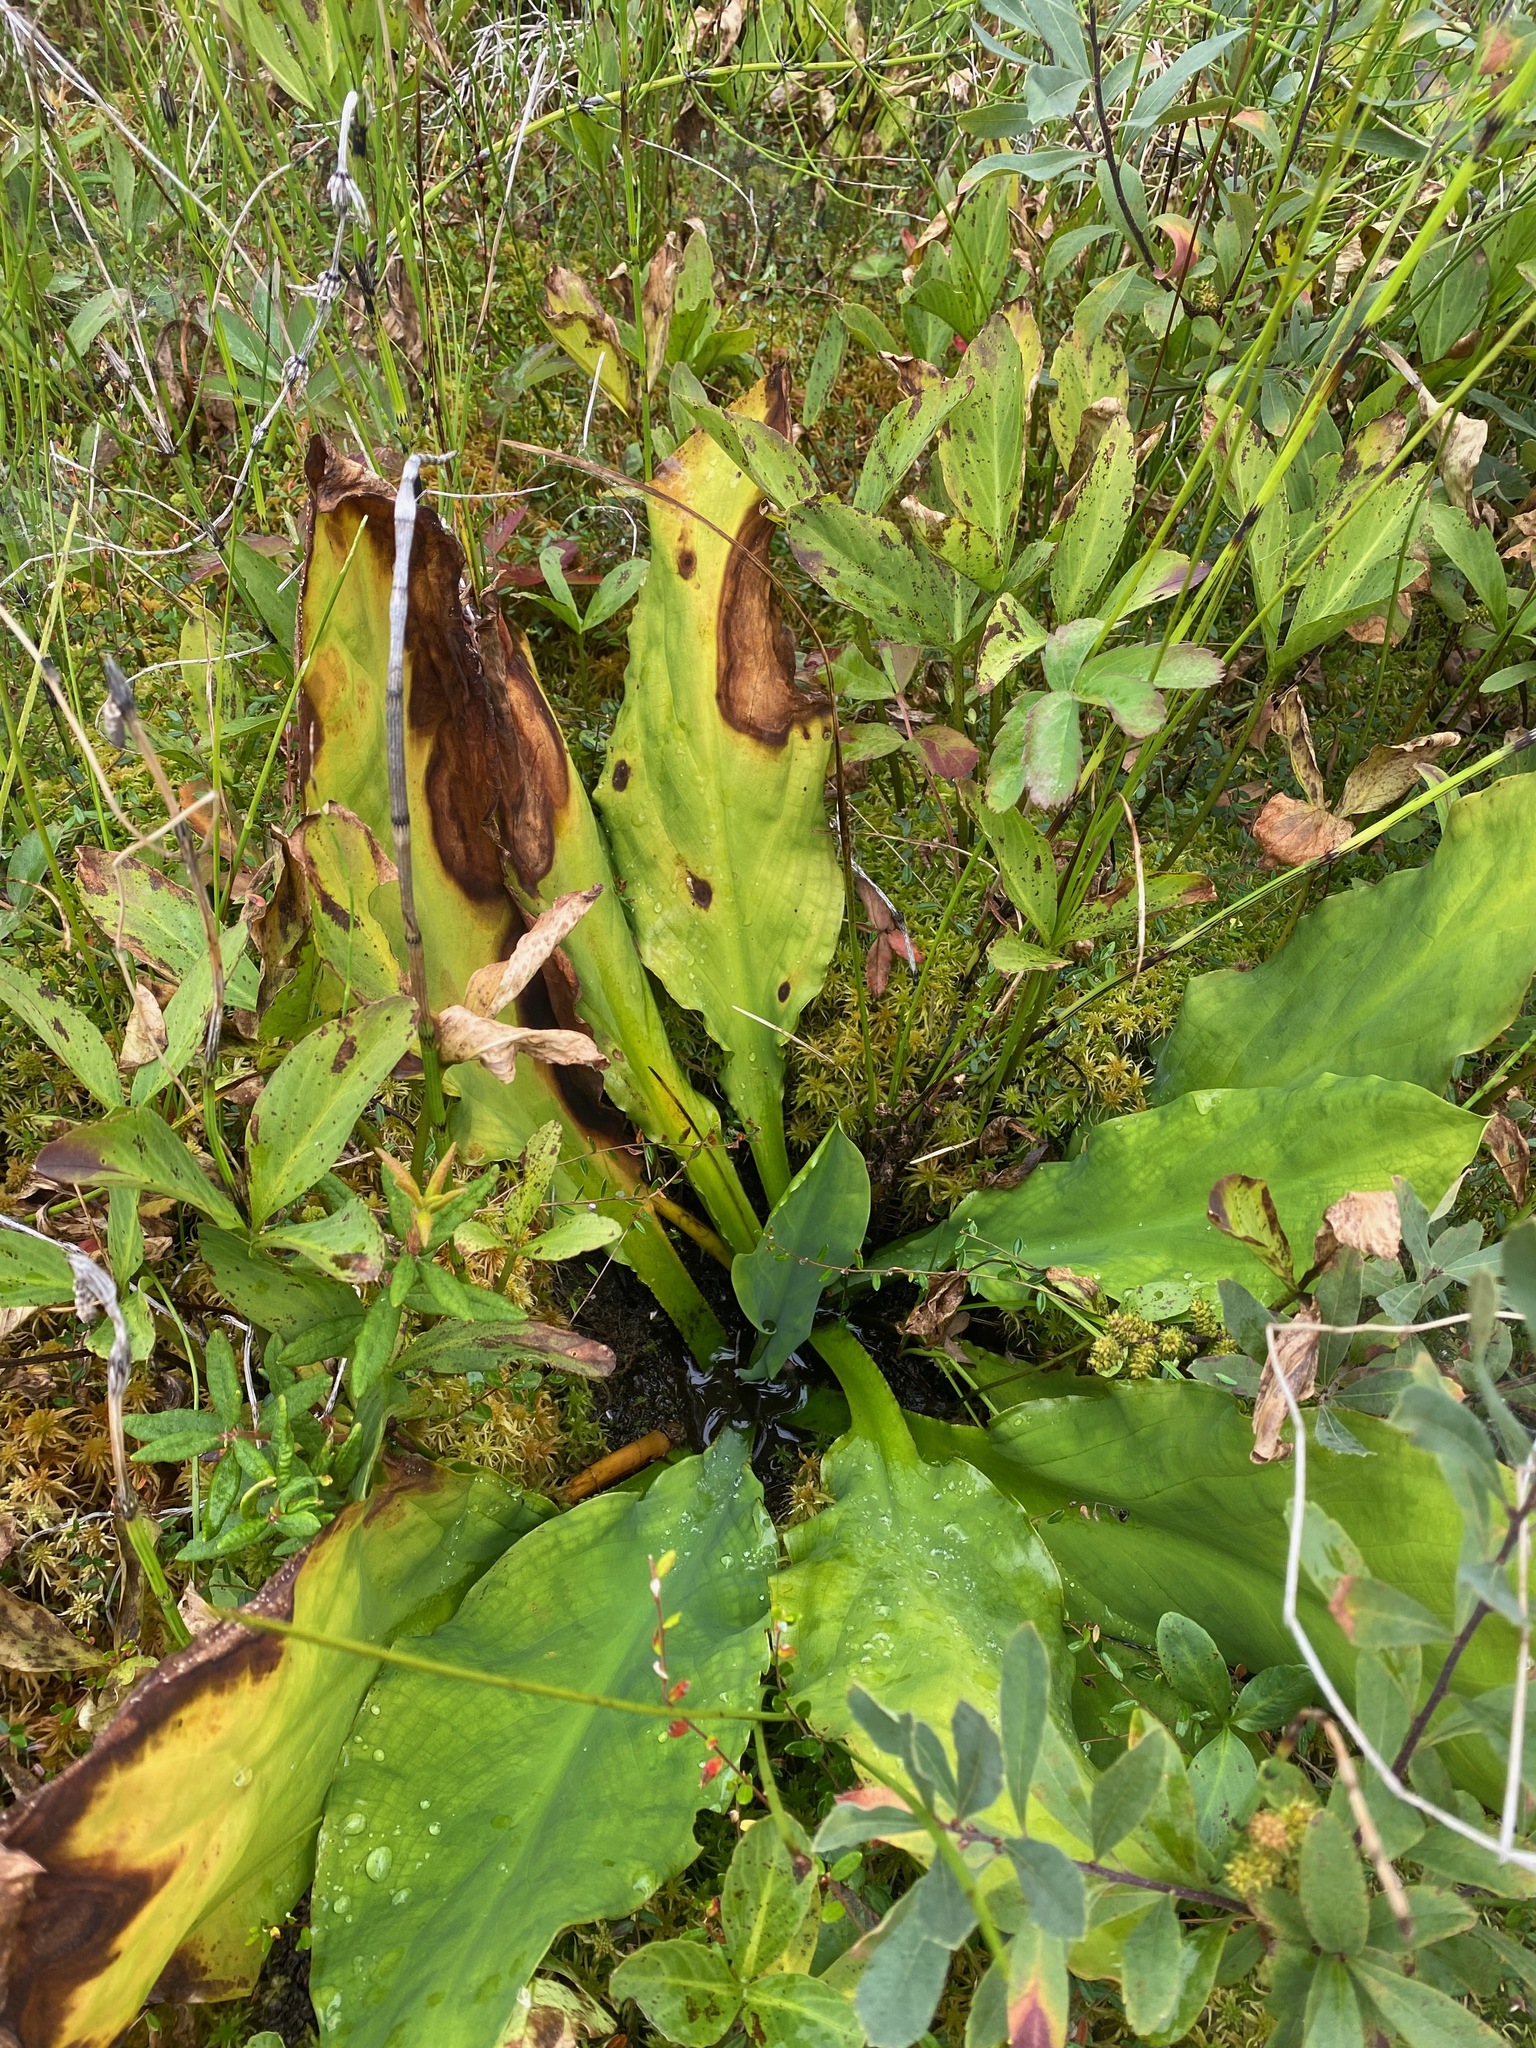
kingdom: Plantae
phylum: Tracheophyta
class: Liliopsida
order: Alismatales
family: Araceae
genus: Lysichiton
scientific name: Lysichiton americanus
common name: American skunk cabbage
